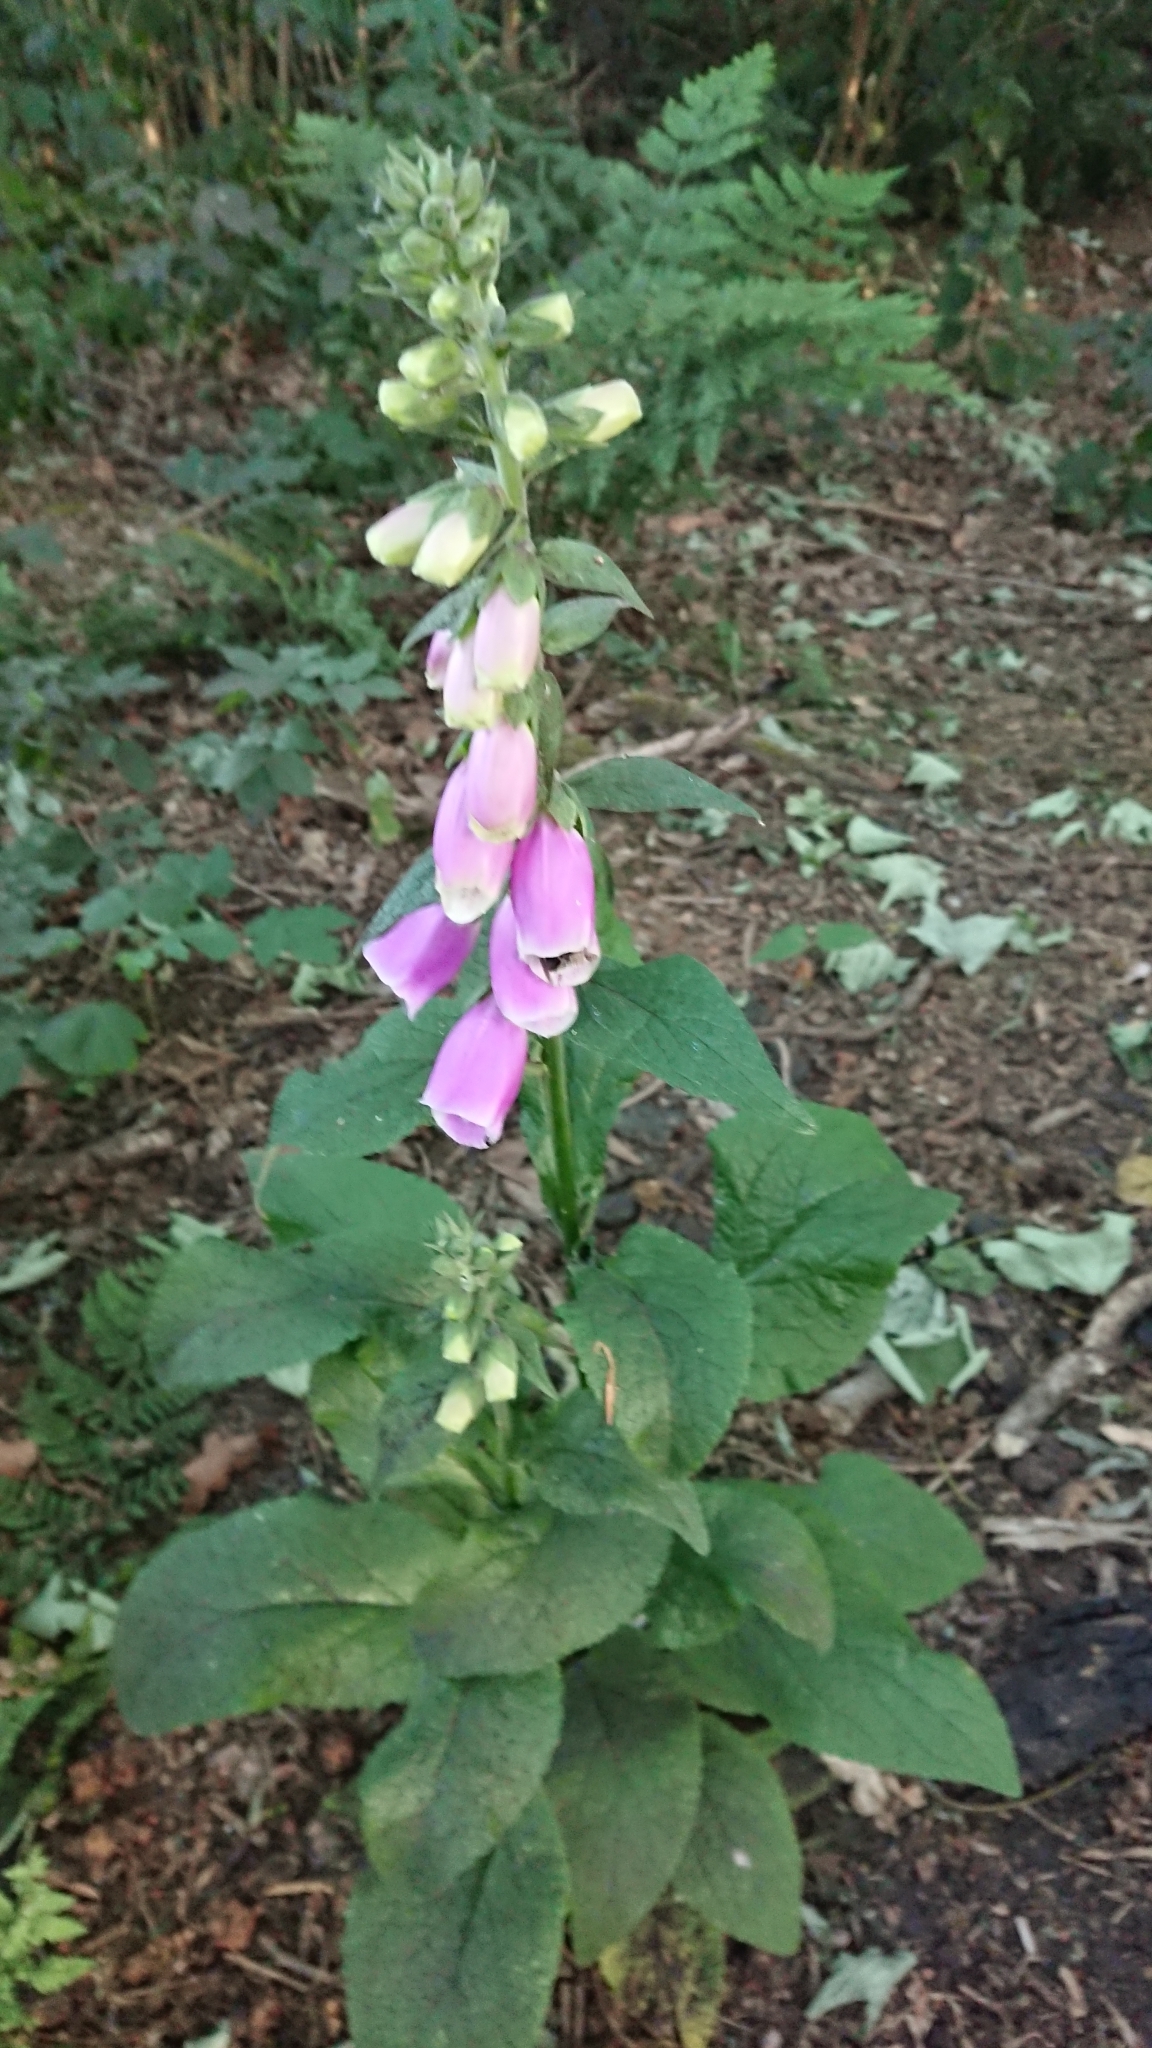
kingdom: Plantae
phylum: Tracheophyta
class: Magnoliopsida
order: Lamiales
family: Plantaginaceae
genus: Digitalis
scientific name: Digitalis purpurea
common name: Foxglove
